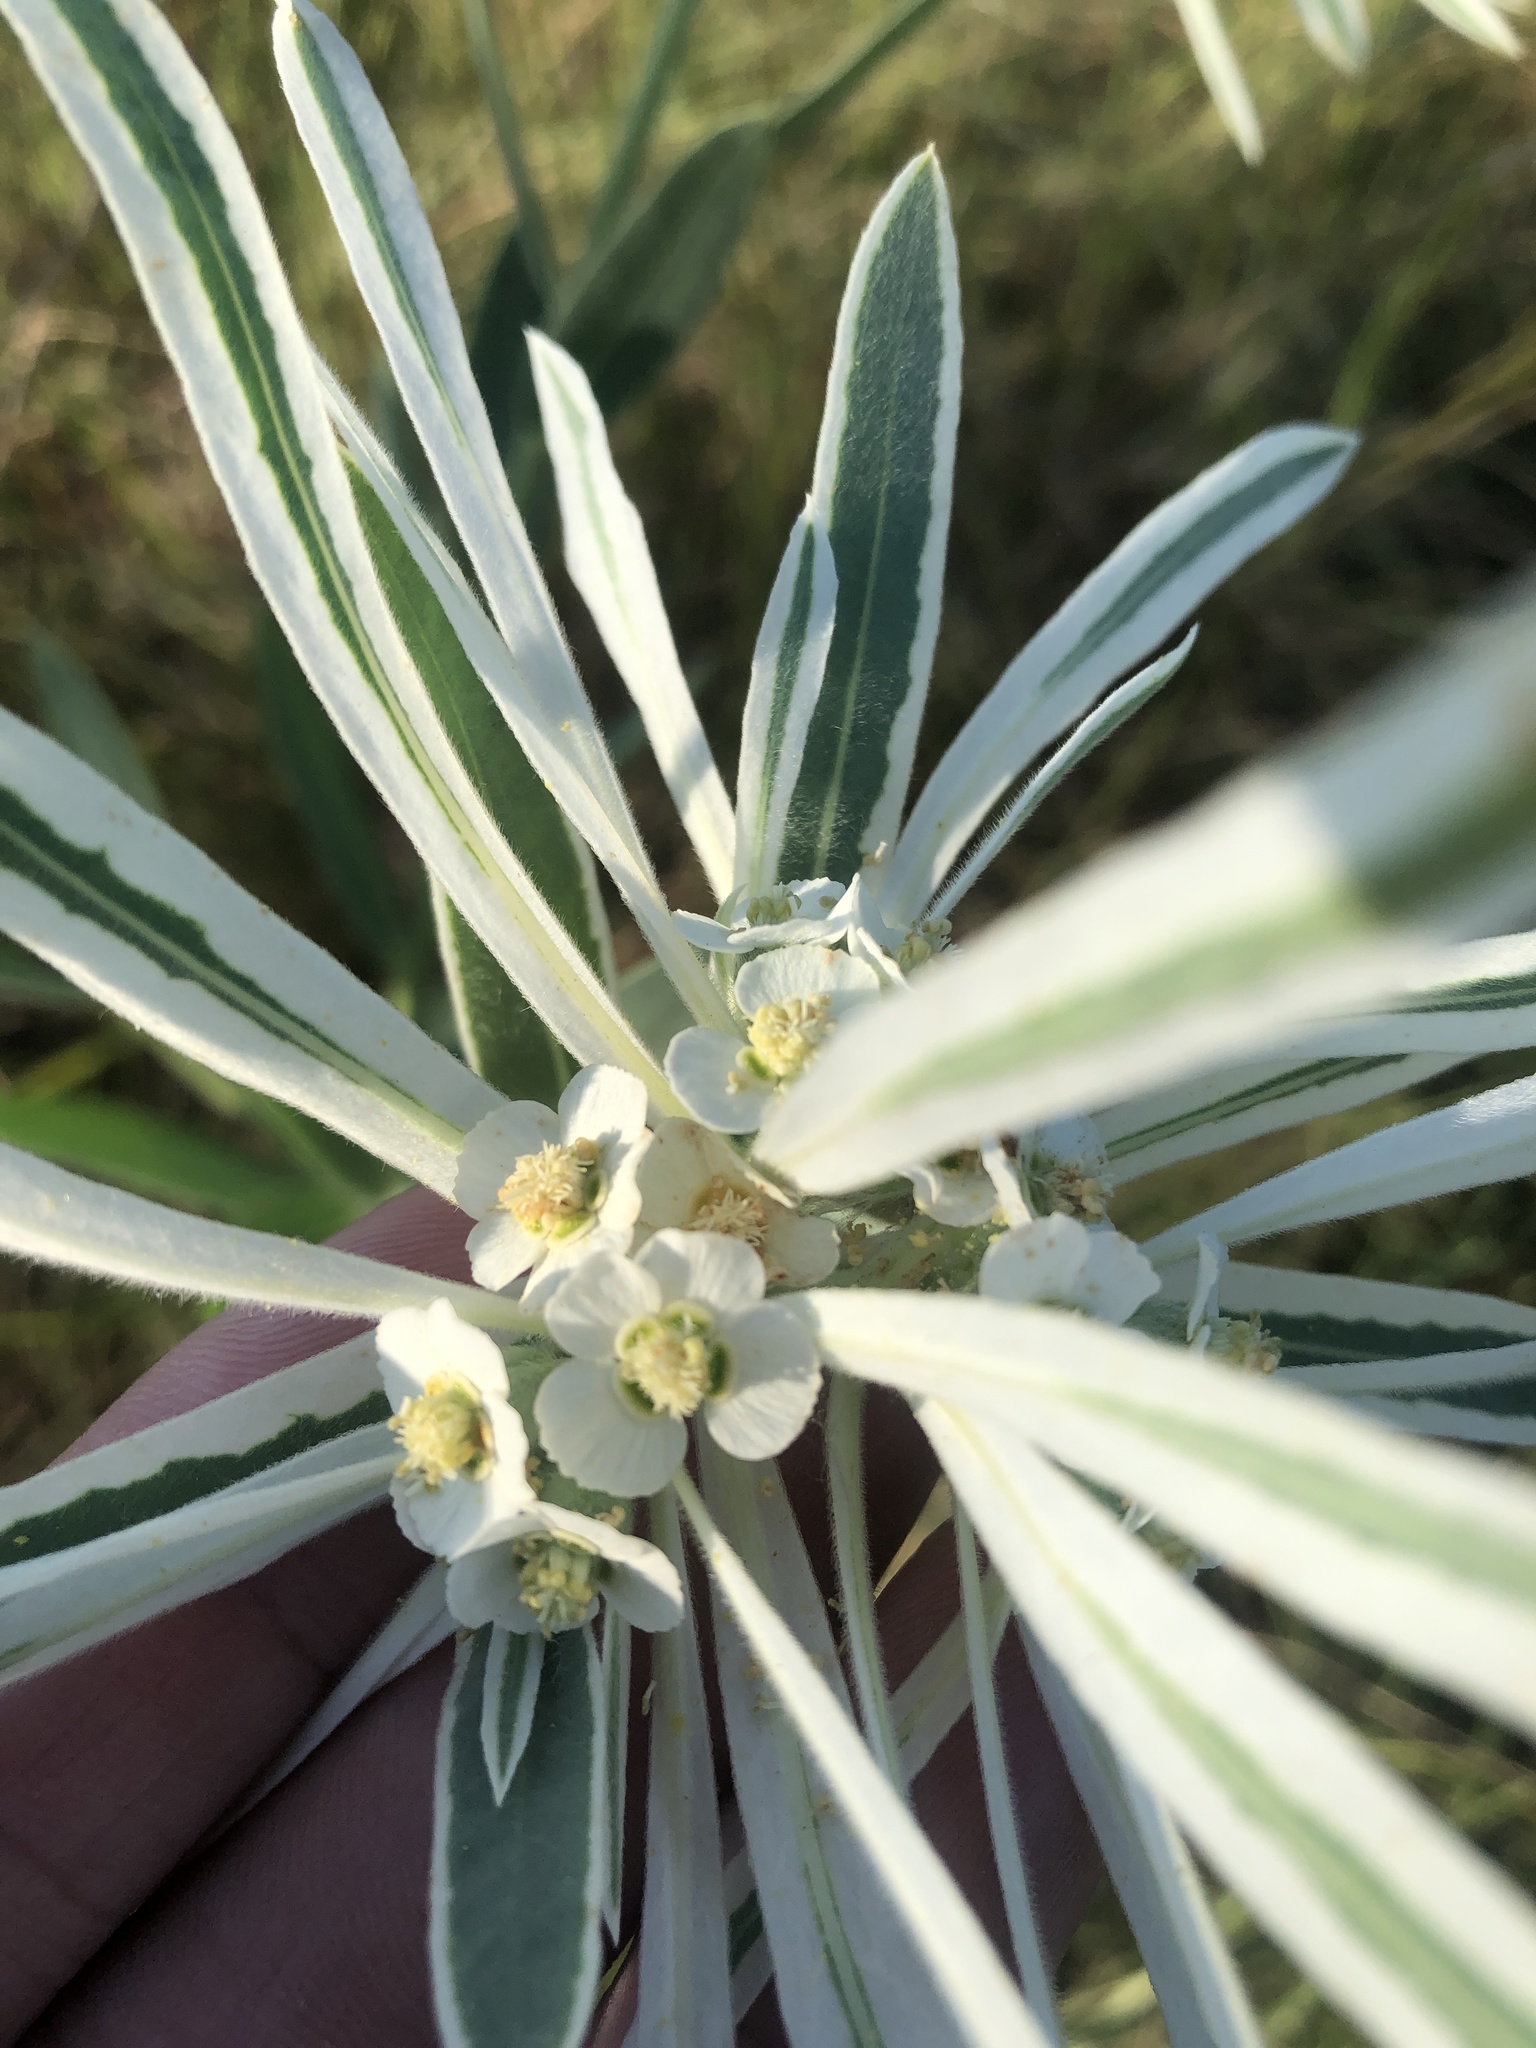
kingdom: Plantae
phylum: Tracheophyta
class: Magnoliopsida
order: Malpighiales
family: Euphorbiaceae
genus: Euphorbia
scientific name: Euphorbia bicolor
